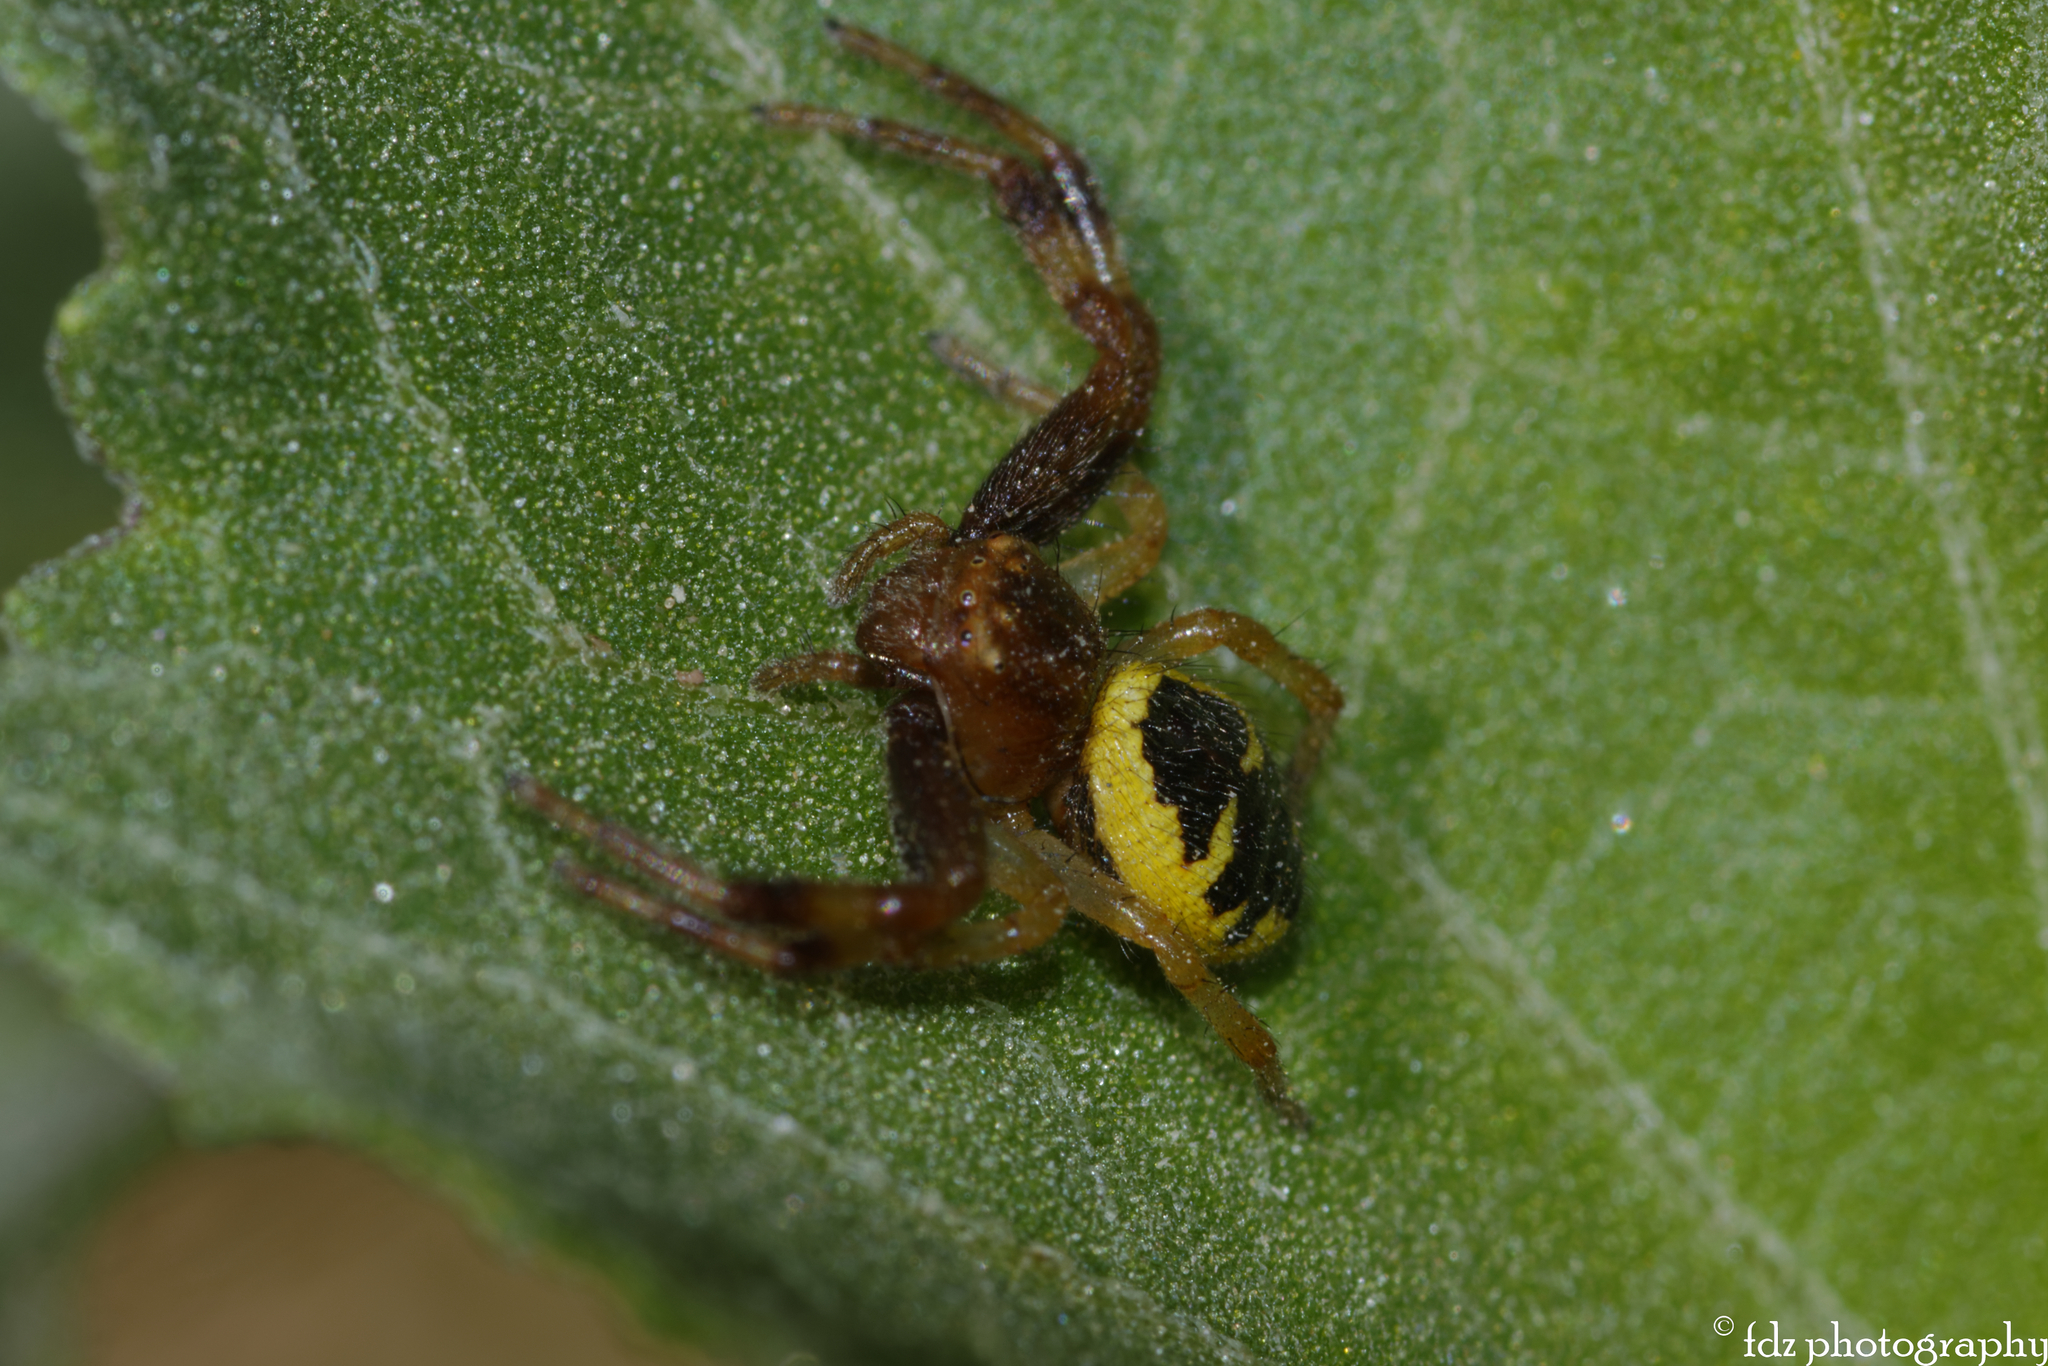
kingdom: Animalia
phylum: Arthropoda
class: Arachnida
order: Araneae
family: Thomisidae
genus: Synema
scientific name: Synema globosum
